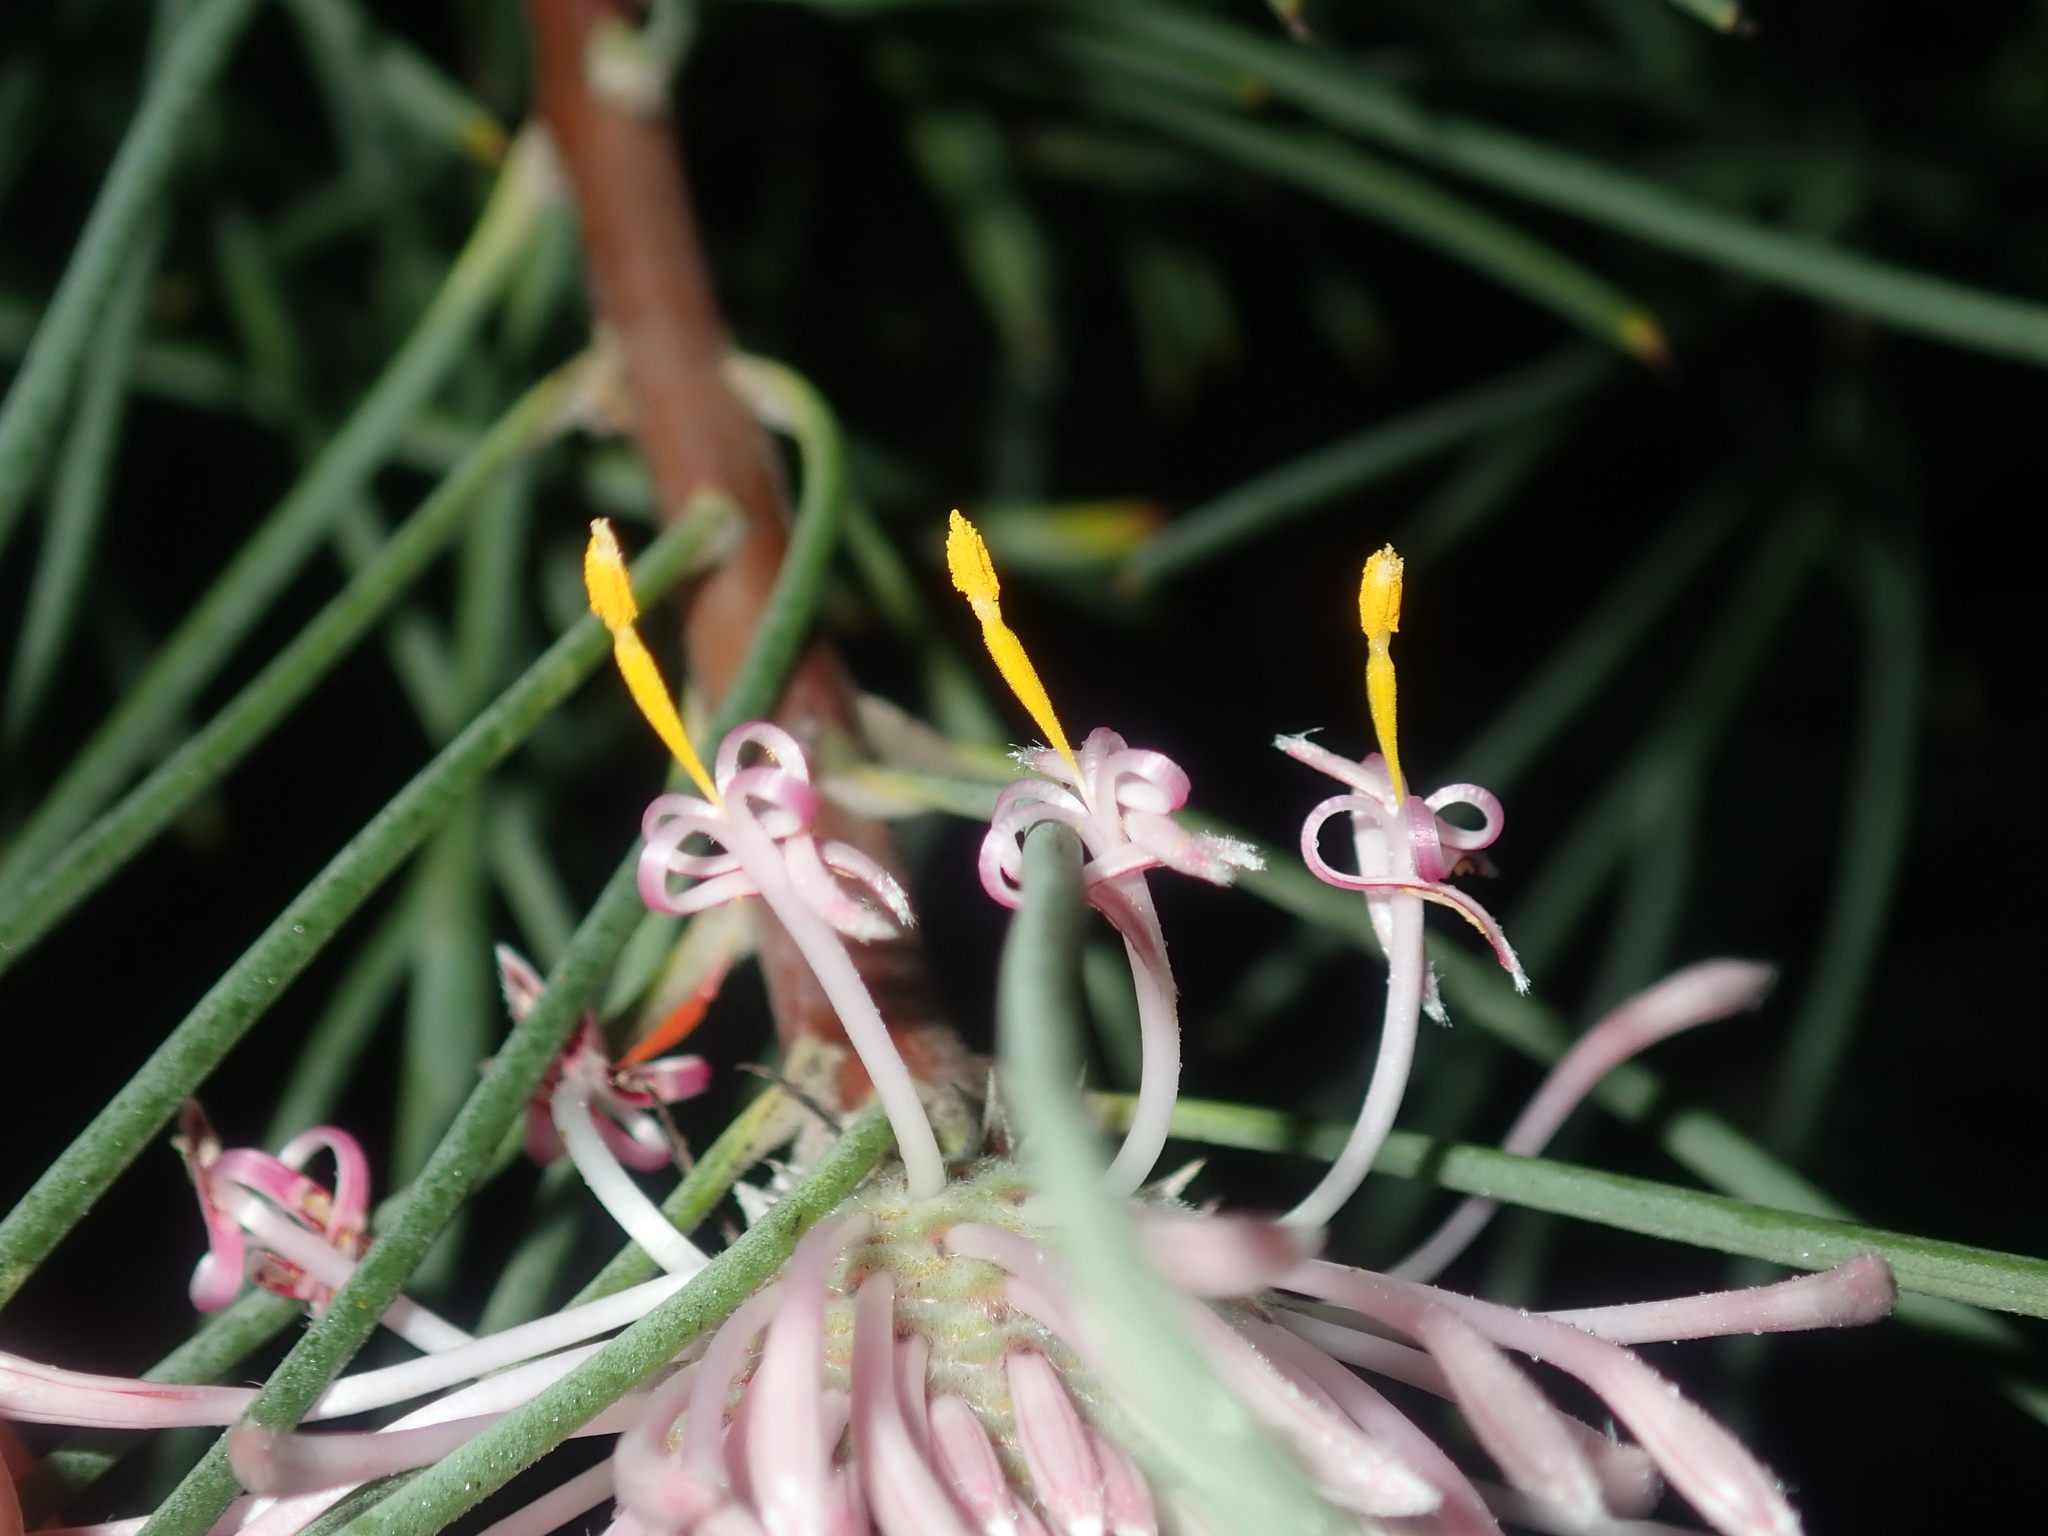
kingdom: Plantae
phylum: Tracheophyta
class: Magnoliopsida
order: Proteales
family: Proteaceae
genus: Isopogon
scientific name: Isopogon divergens
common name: Spreading-coneflower
